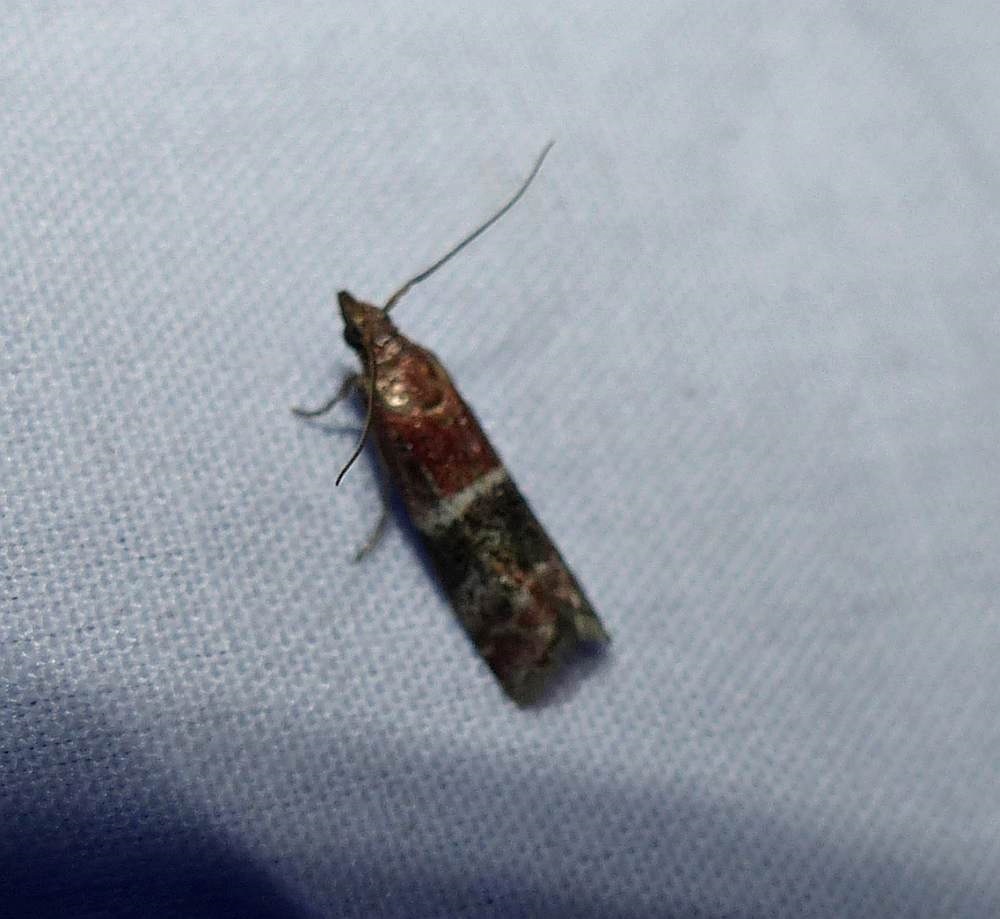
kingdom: Animalia
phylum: Arthropoda
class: Insecta
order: Lepidoptera
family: Pyralidae
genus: Moodna
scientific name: Moodna ostrinella
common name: Darker moodna moth
